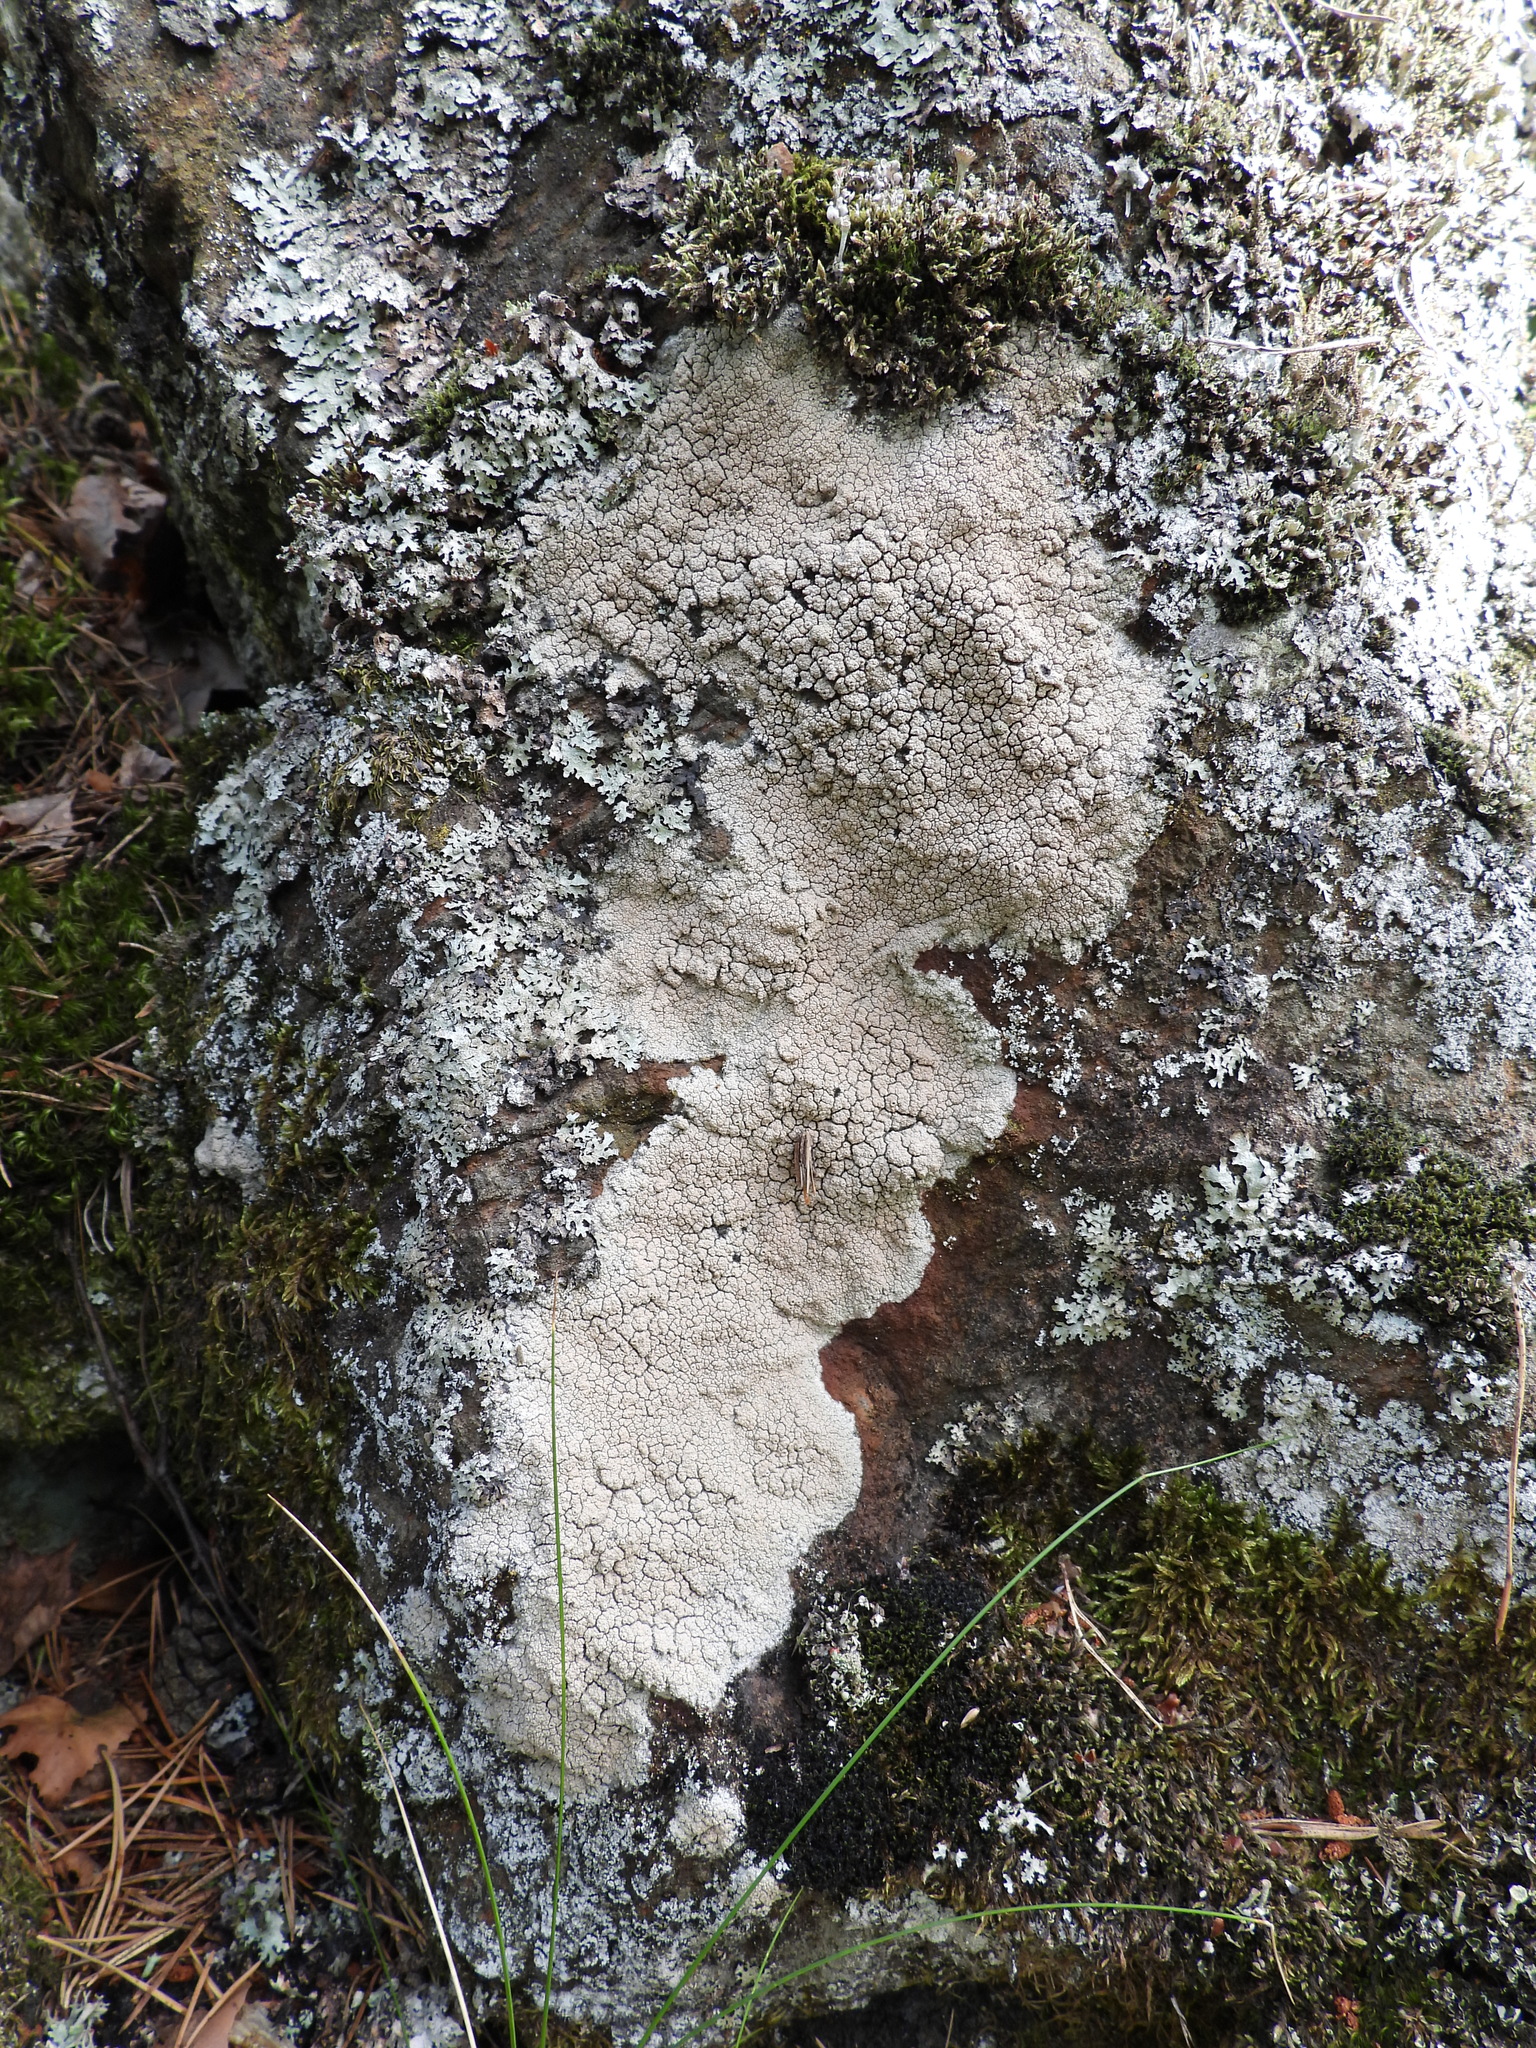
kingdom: Fungi
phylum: Ascomycota
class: Lecanoromycetes
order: Ostropales
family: Graphidaceae
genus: Diploschistes
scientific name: Diploschistes scruposus
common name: Crater lichen
